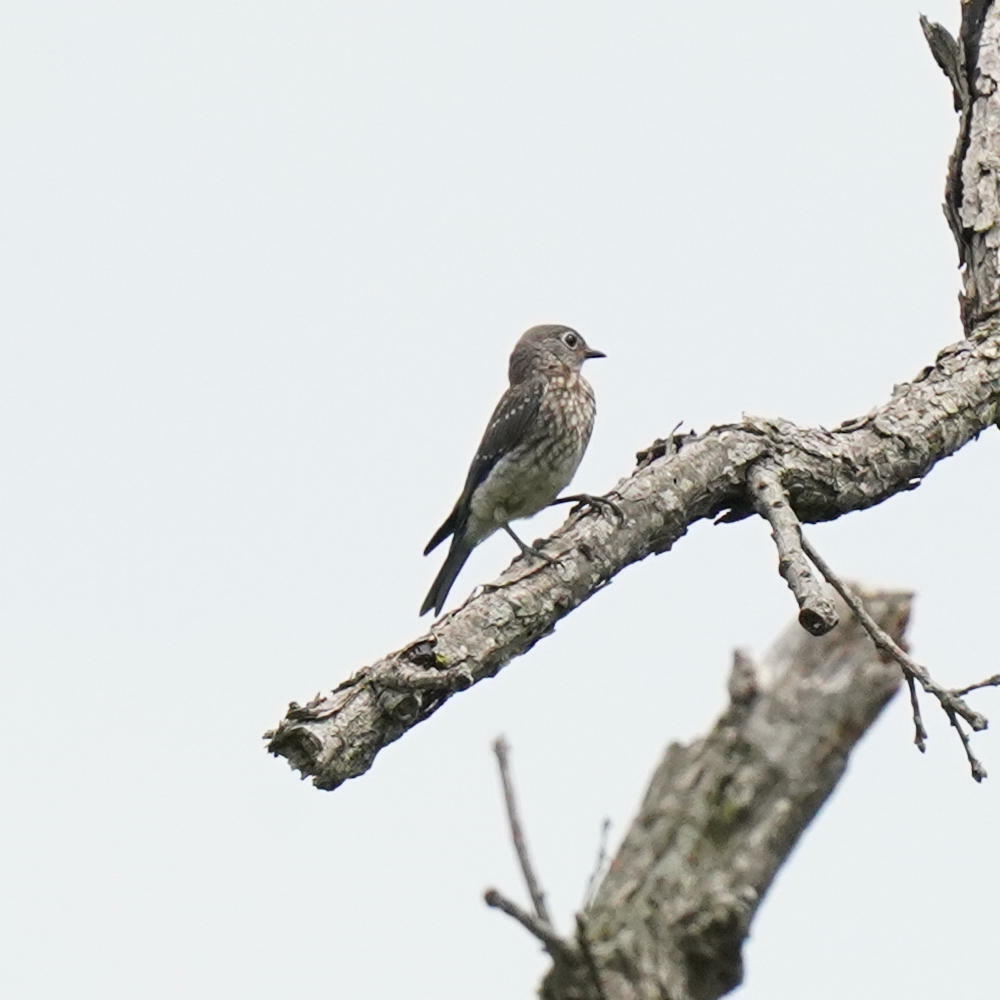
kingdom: Animalia
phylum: Chordata
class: Aves
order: Passeriformes
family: Turdidae
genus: Sialia
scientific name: Sialia sialis
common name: Eastern bluebird
